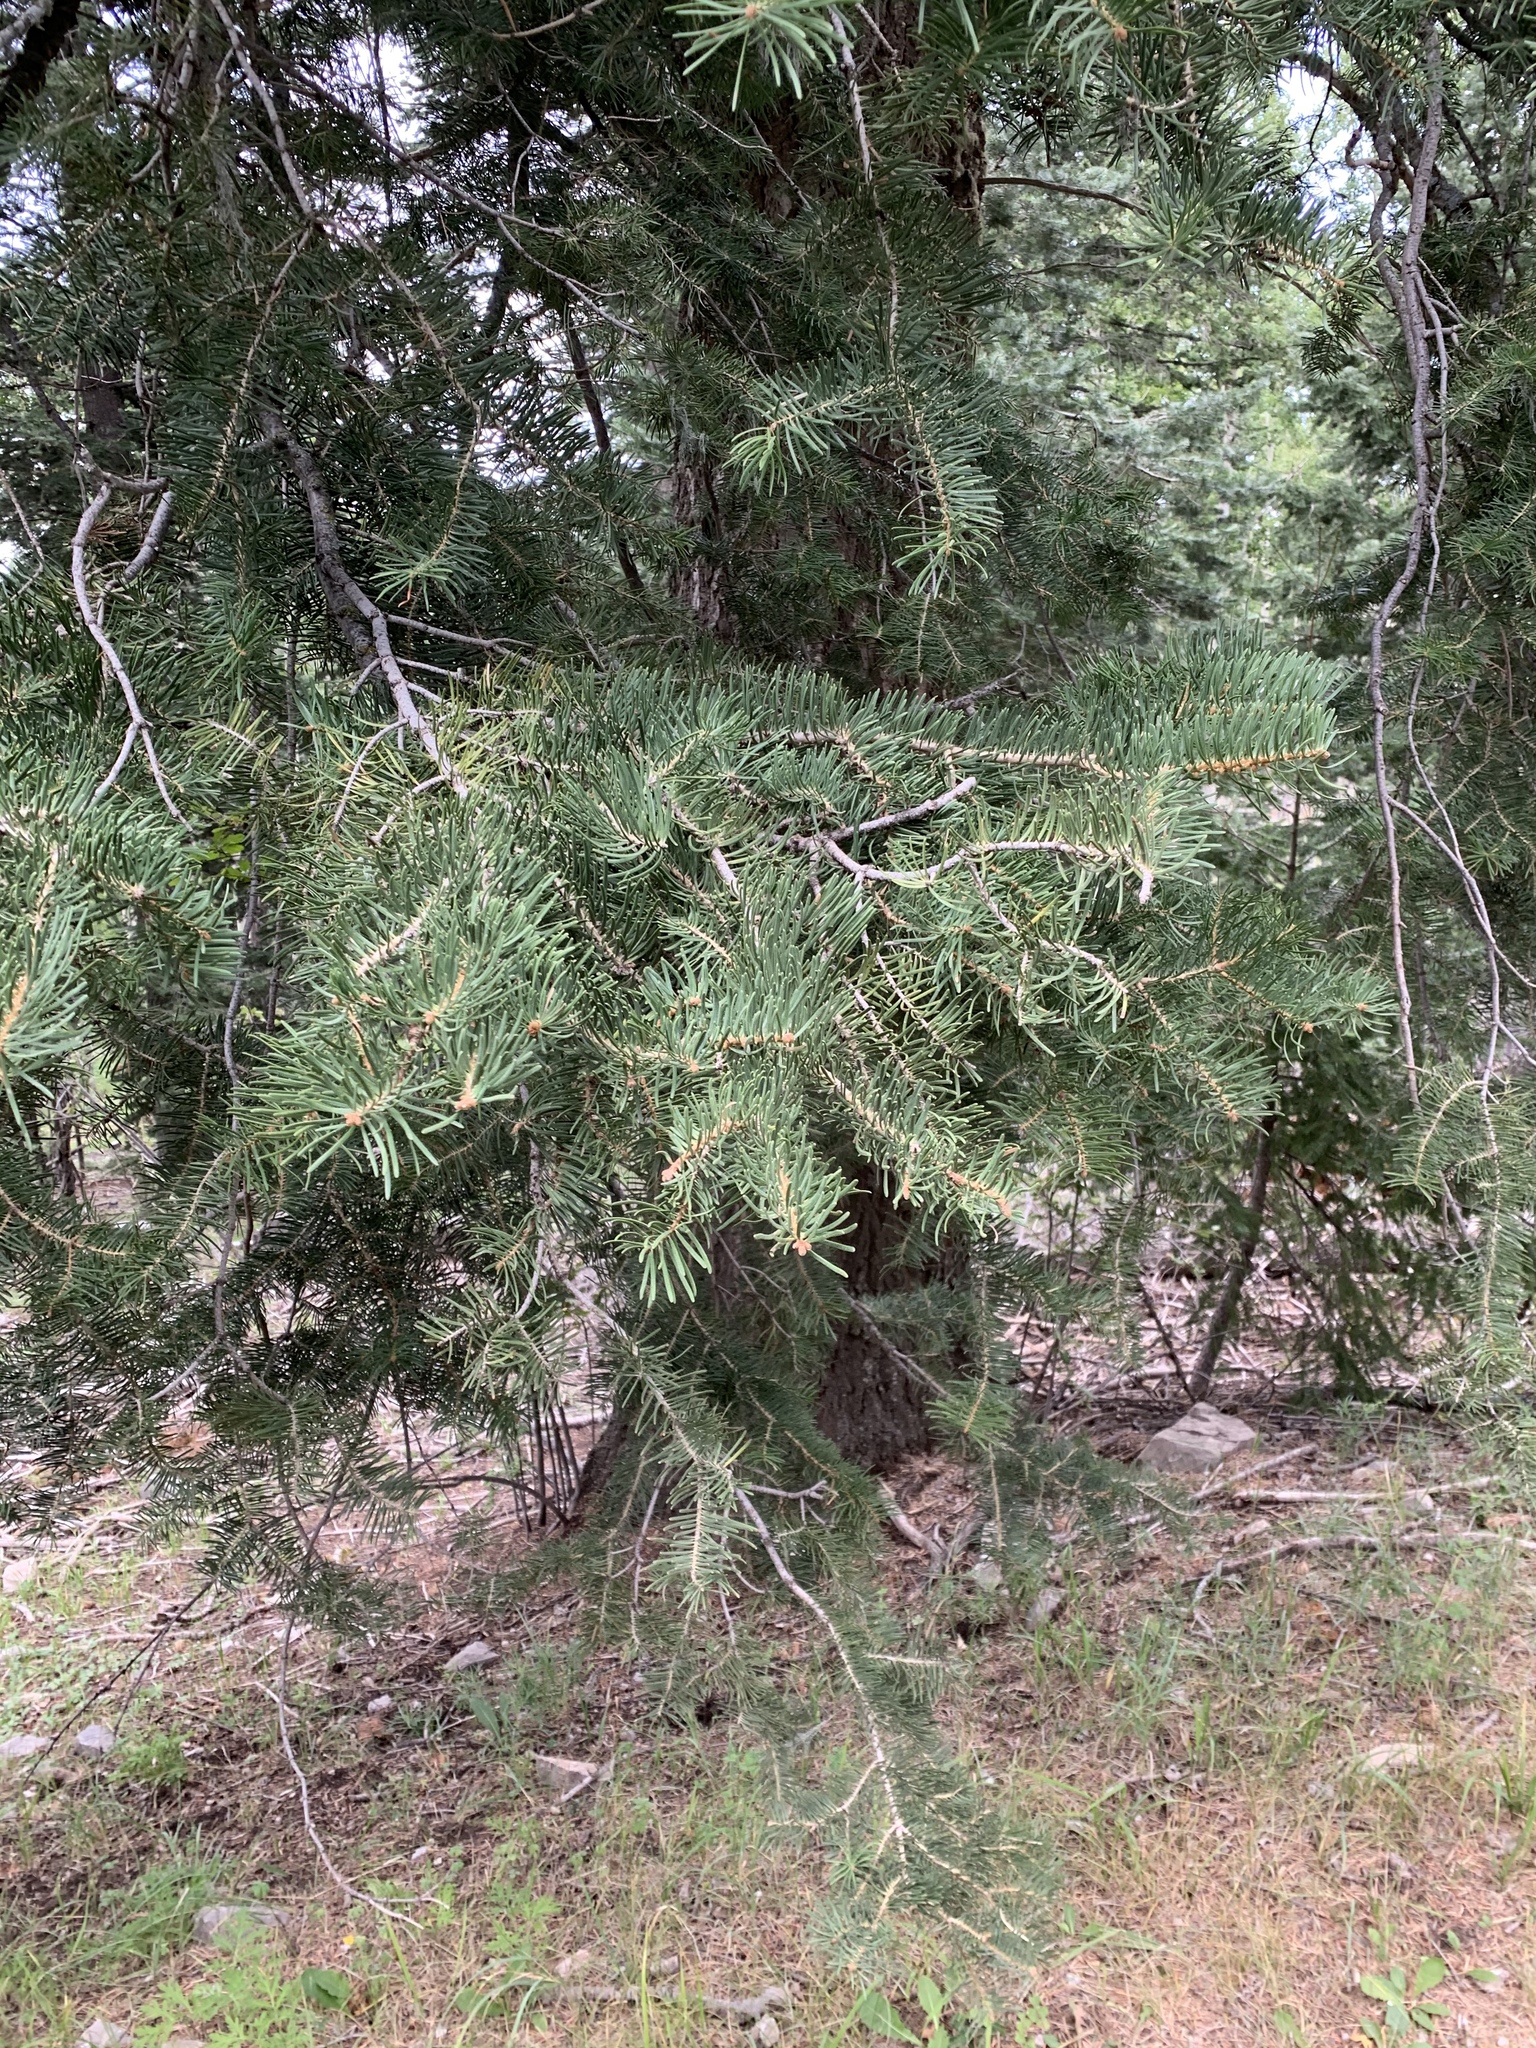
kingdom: Plantae
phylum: Tracheophyta
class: Pinopsida
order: Pinales
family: Pinaceae
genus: Abies
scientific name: Abies concolor
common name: Colorado fir
